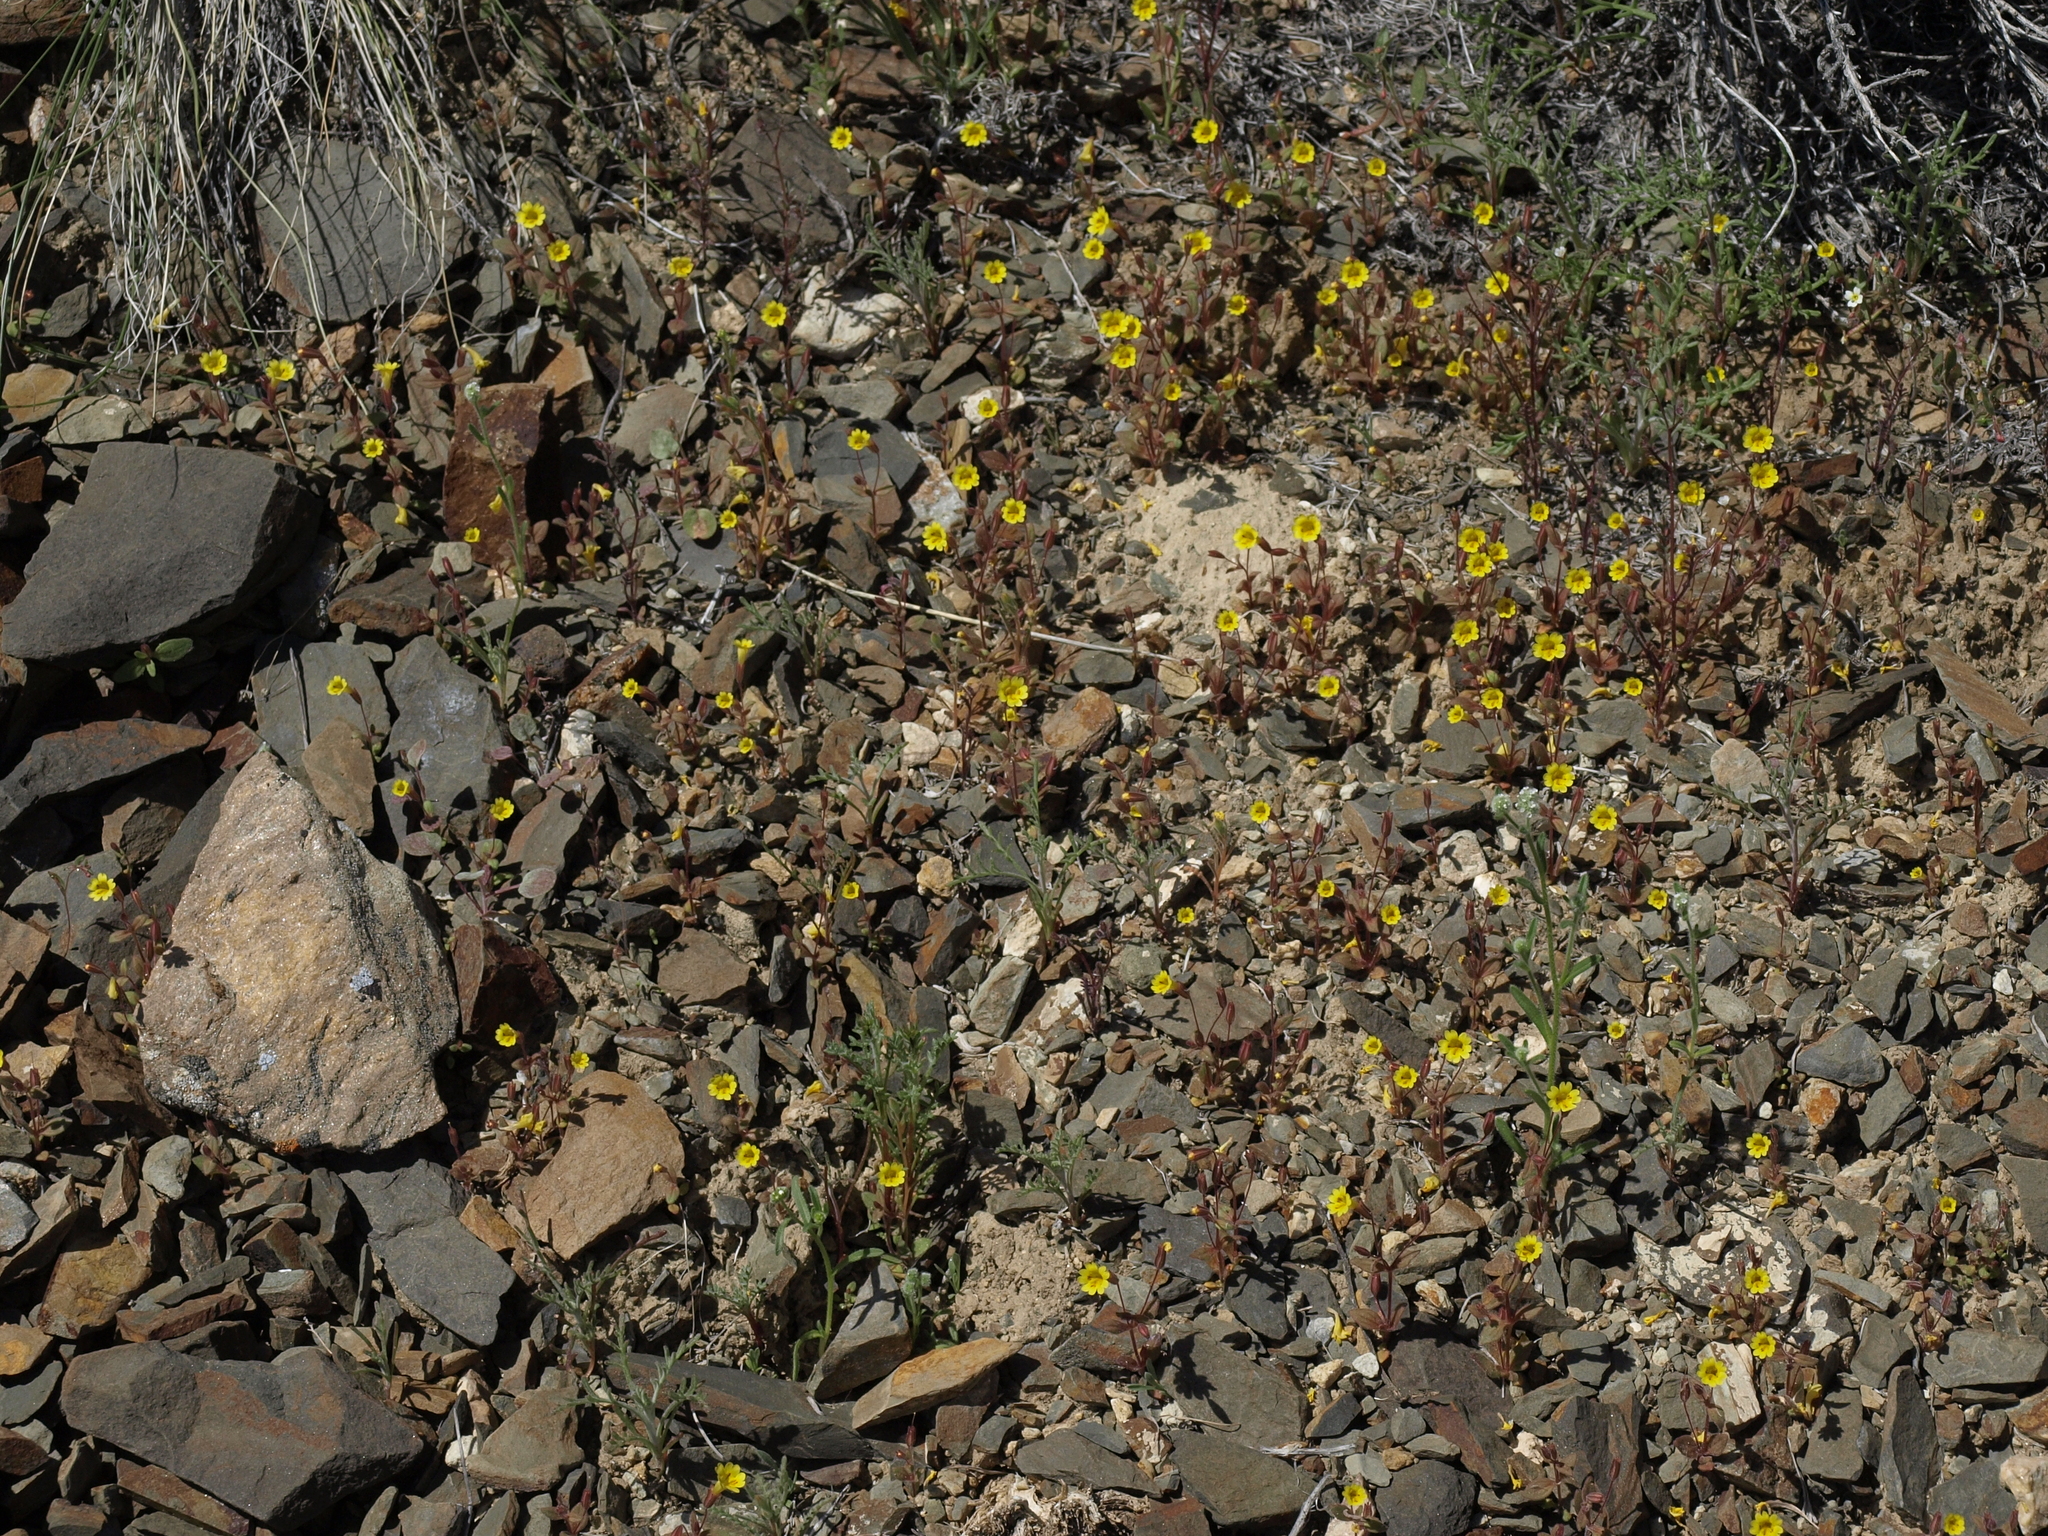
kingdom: Plantae
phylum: Tracheophyta
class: Magnoliopsida
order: Lamiales
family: Phrymaceae
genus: Erythranthe
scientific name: Erythranthe calcicola
